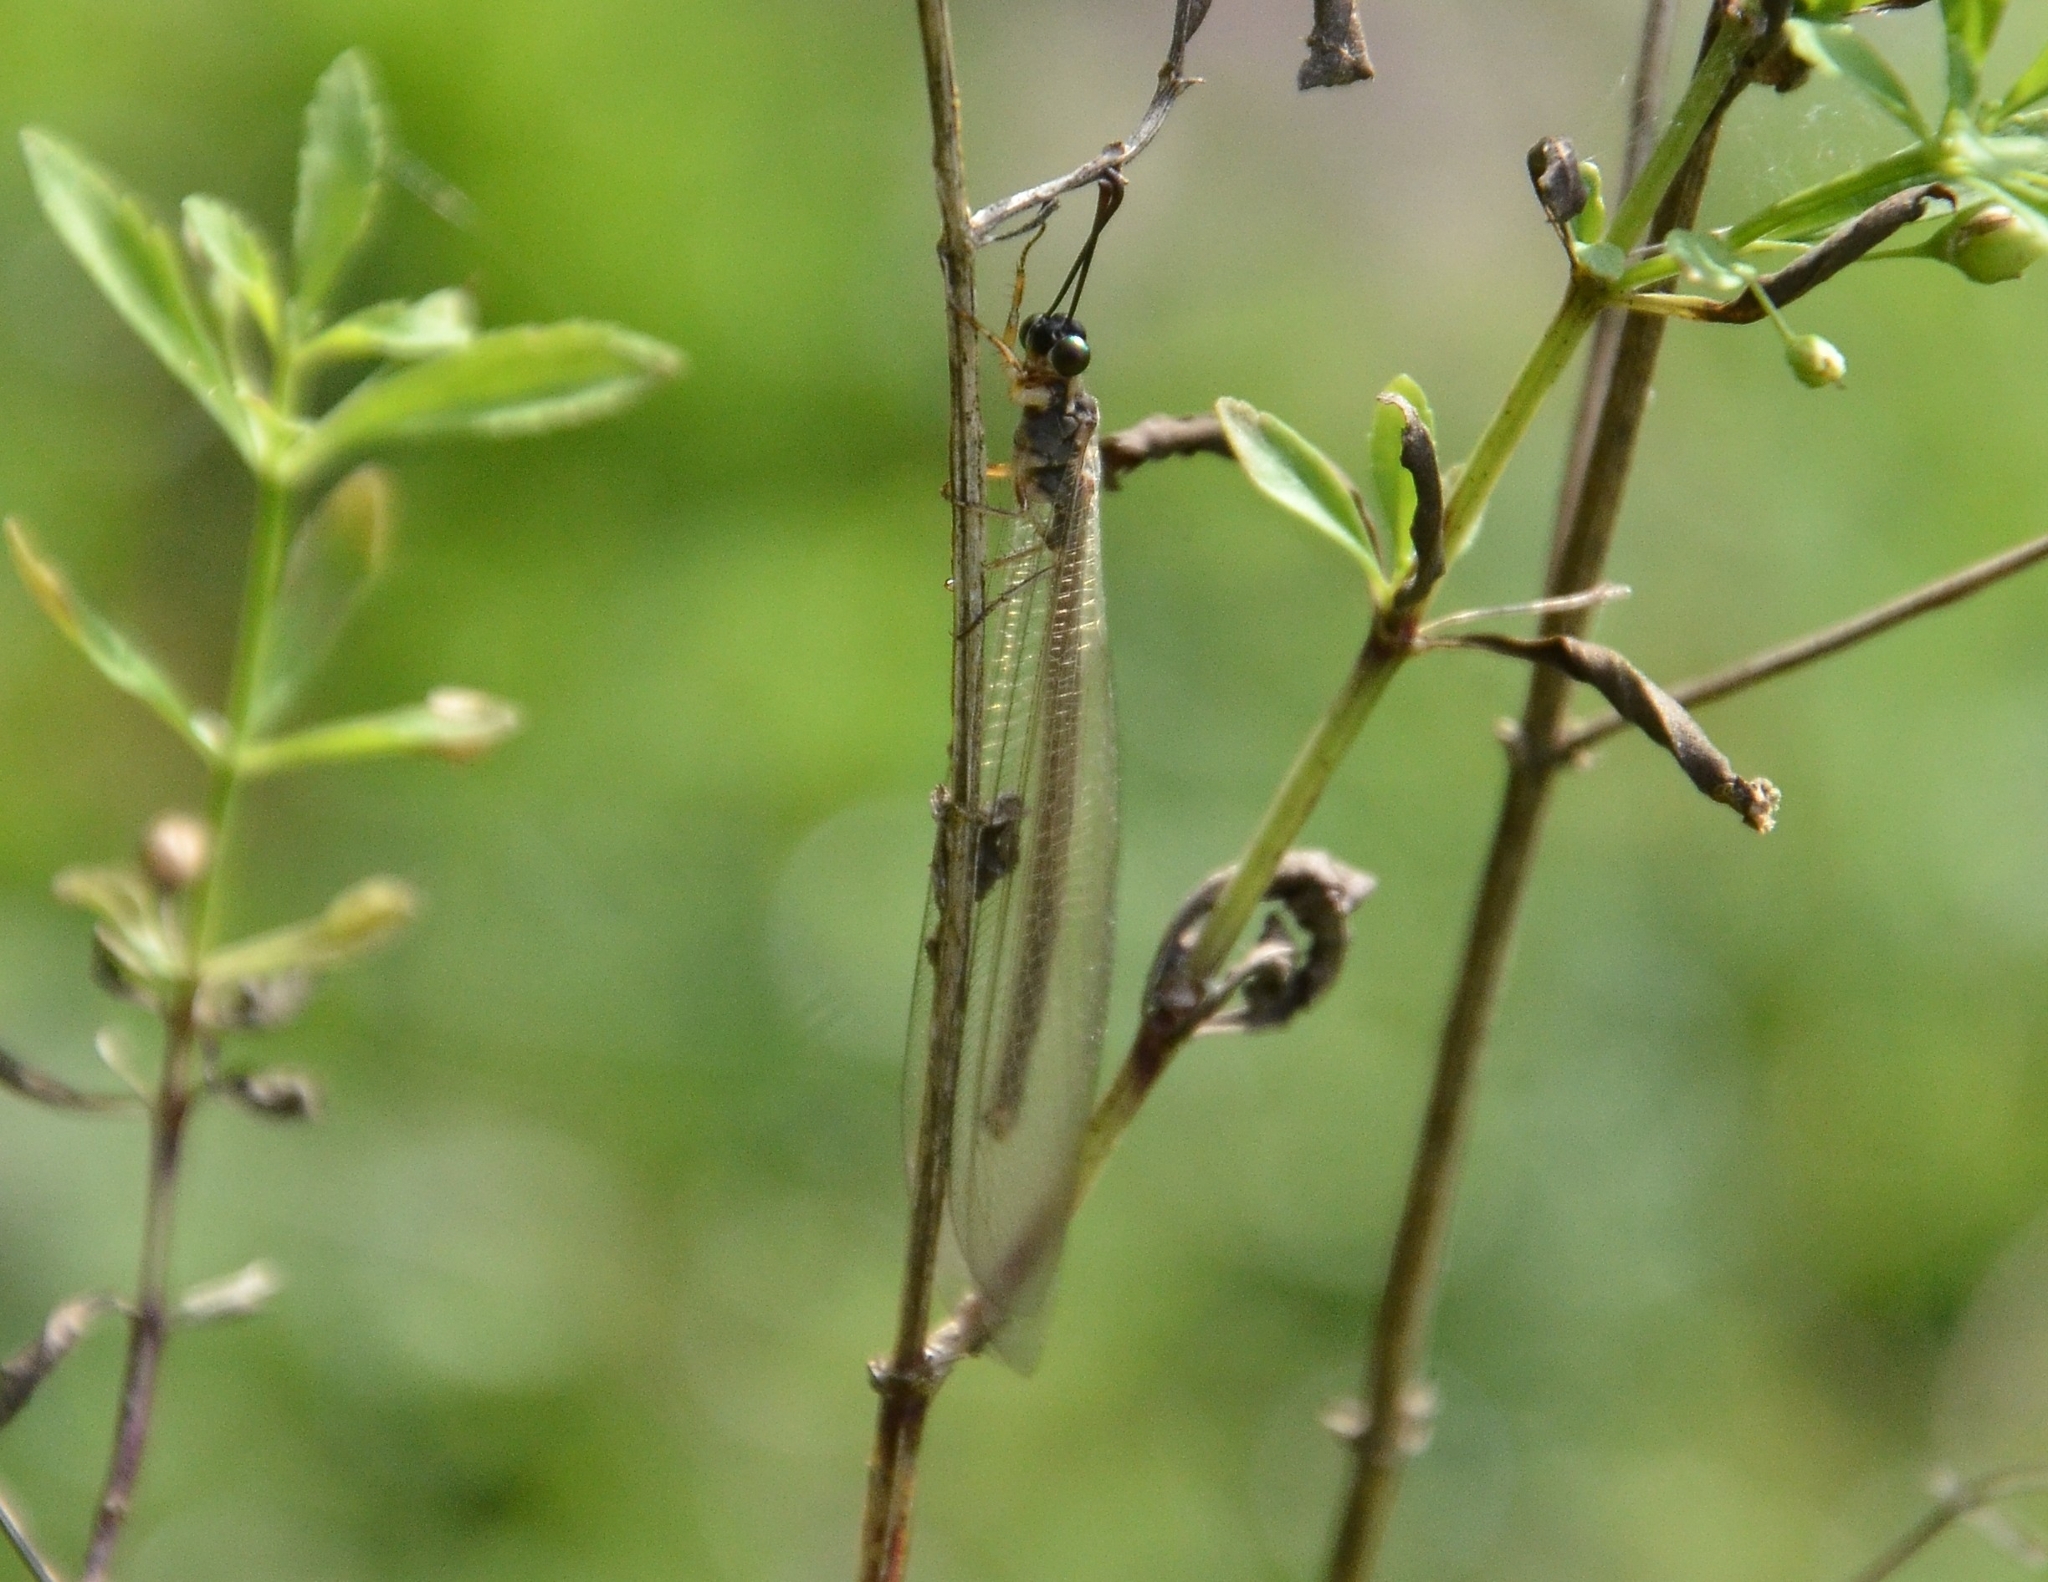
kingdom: Animalia
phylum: Arthropoda
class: Insecta
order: Neuroptera
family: Myrmeleontidae
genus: Myrmeleon
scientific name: Myrmeleon tenuipennis
